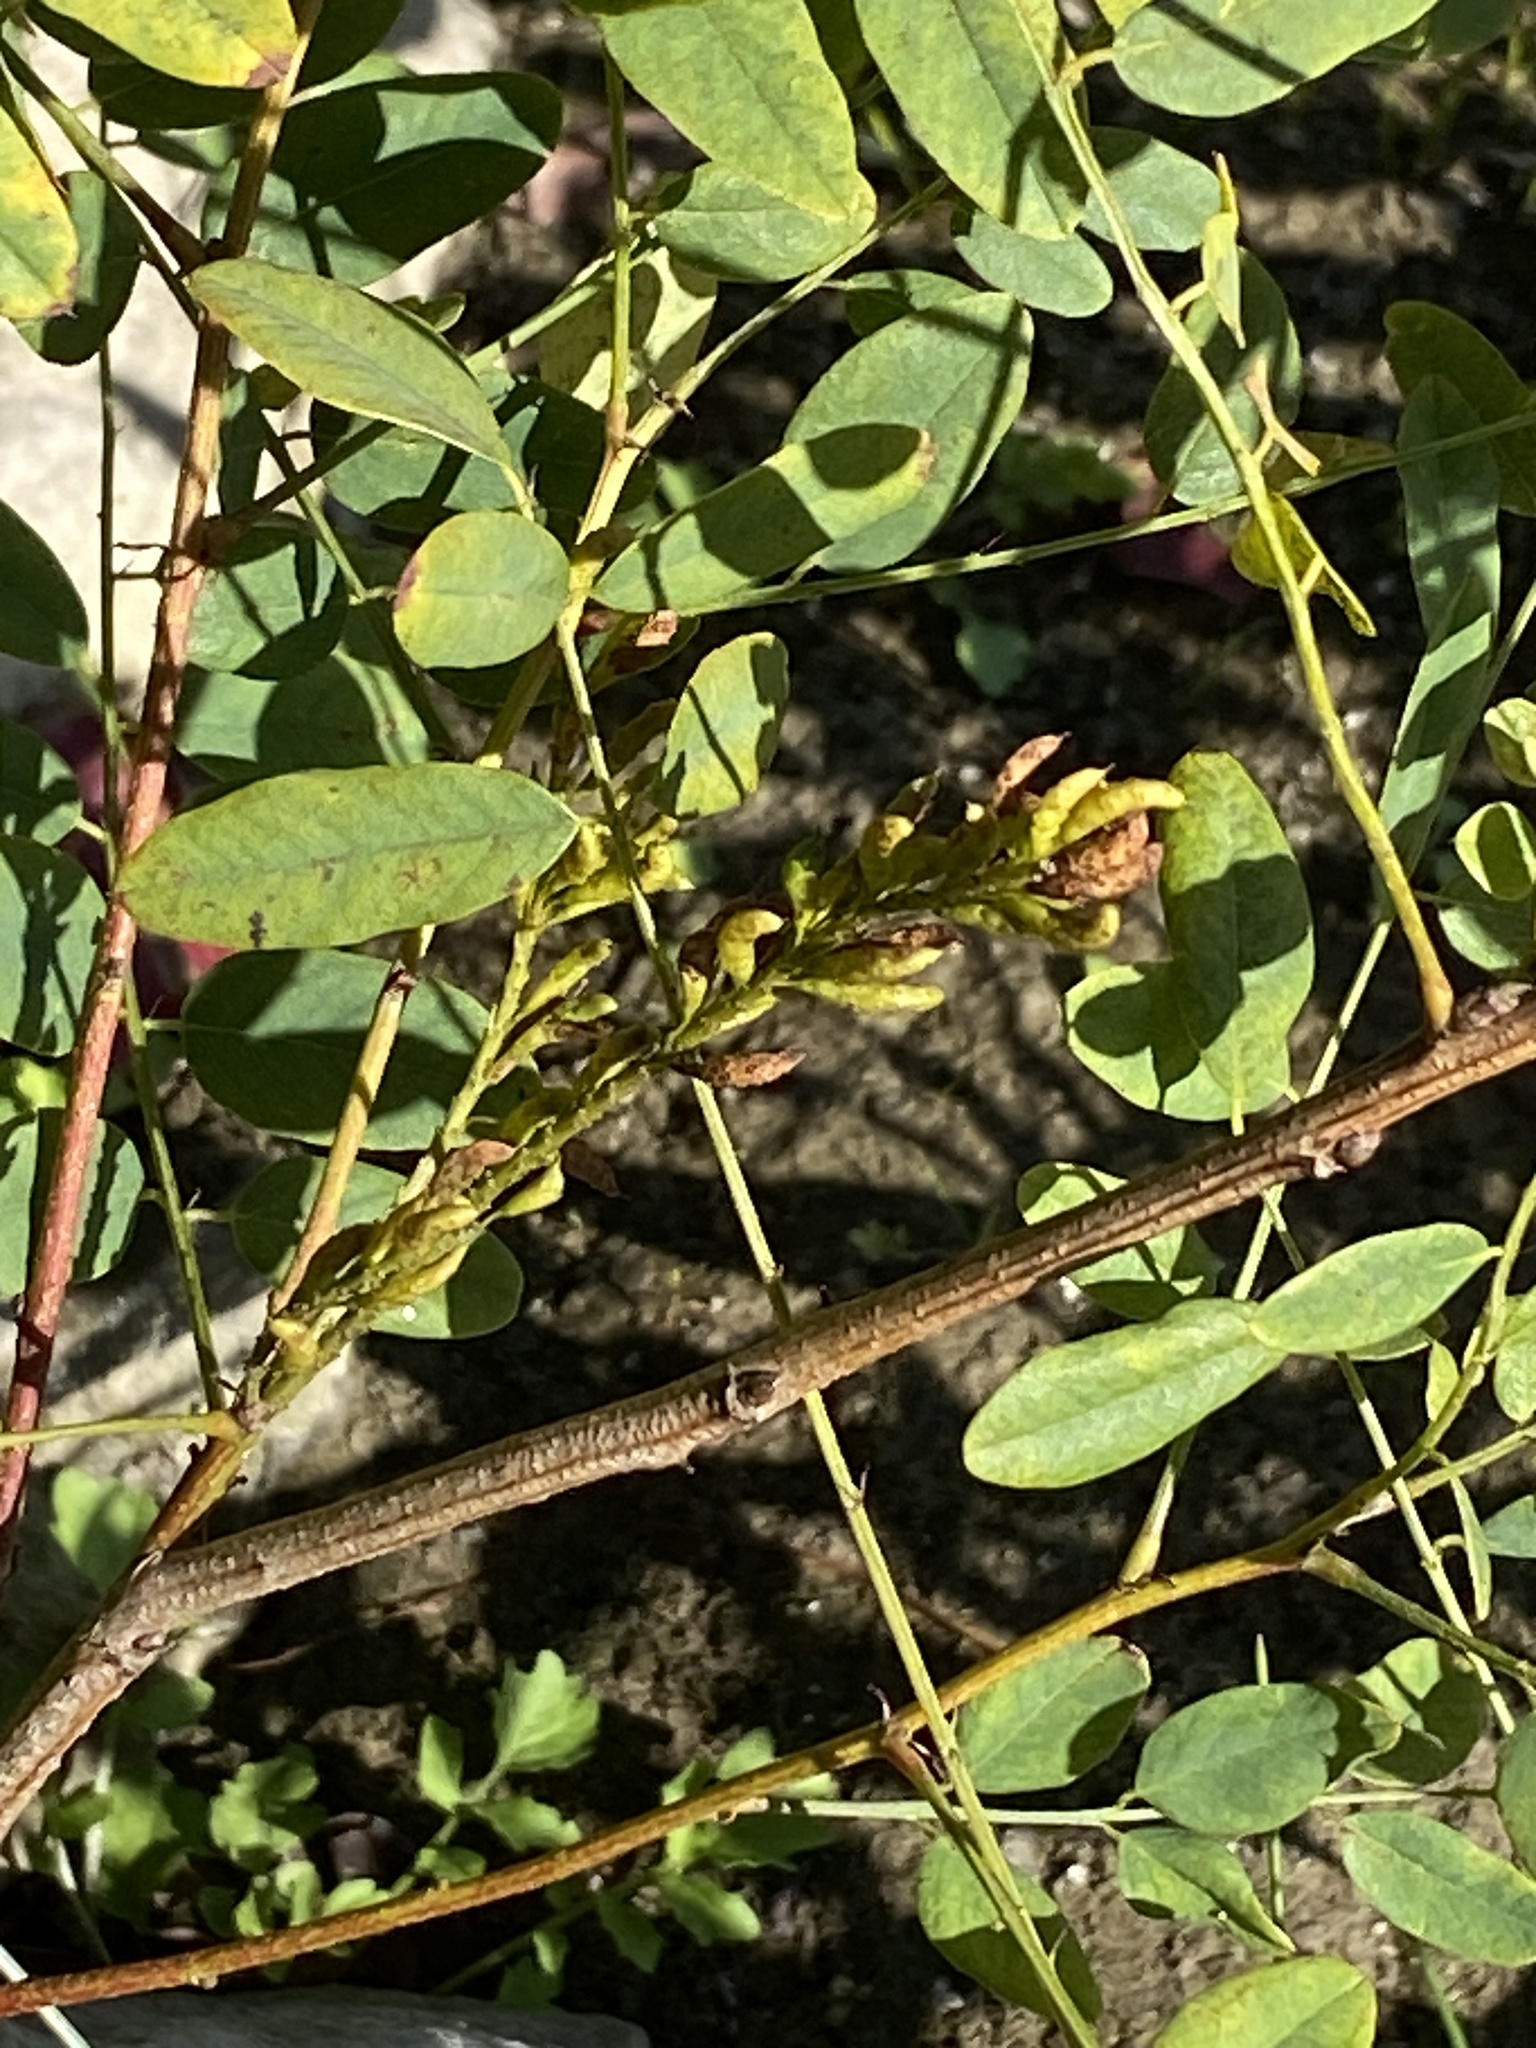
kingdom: Plantae
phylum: Tracheophyta
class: Magnoliopsida
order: Fabales
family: Fabaceae
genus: Amorpha
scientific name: Amorpha fruticosa
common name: False indigo
